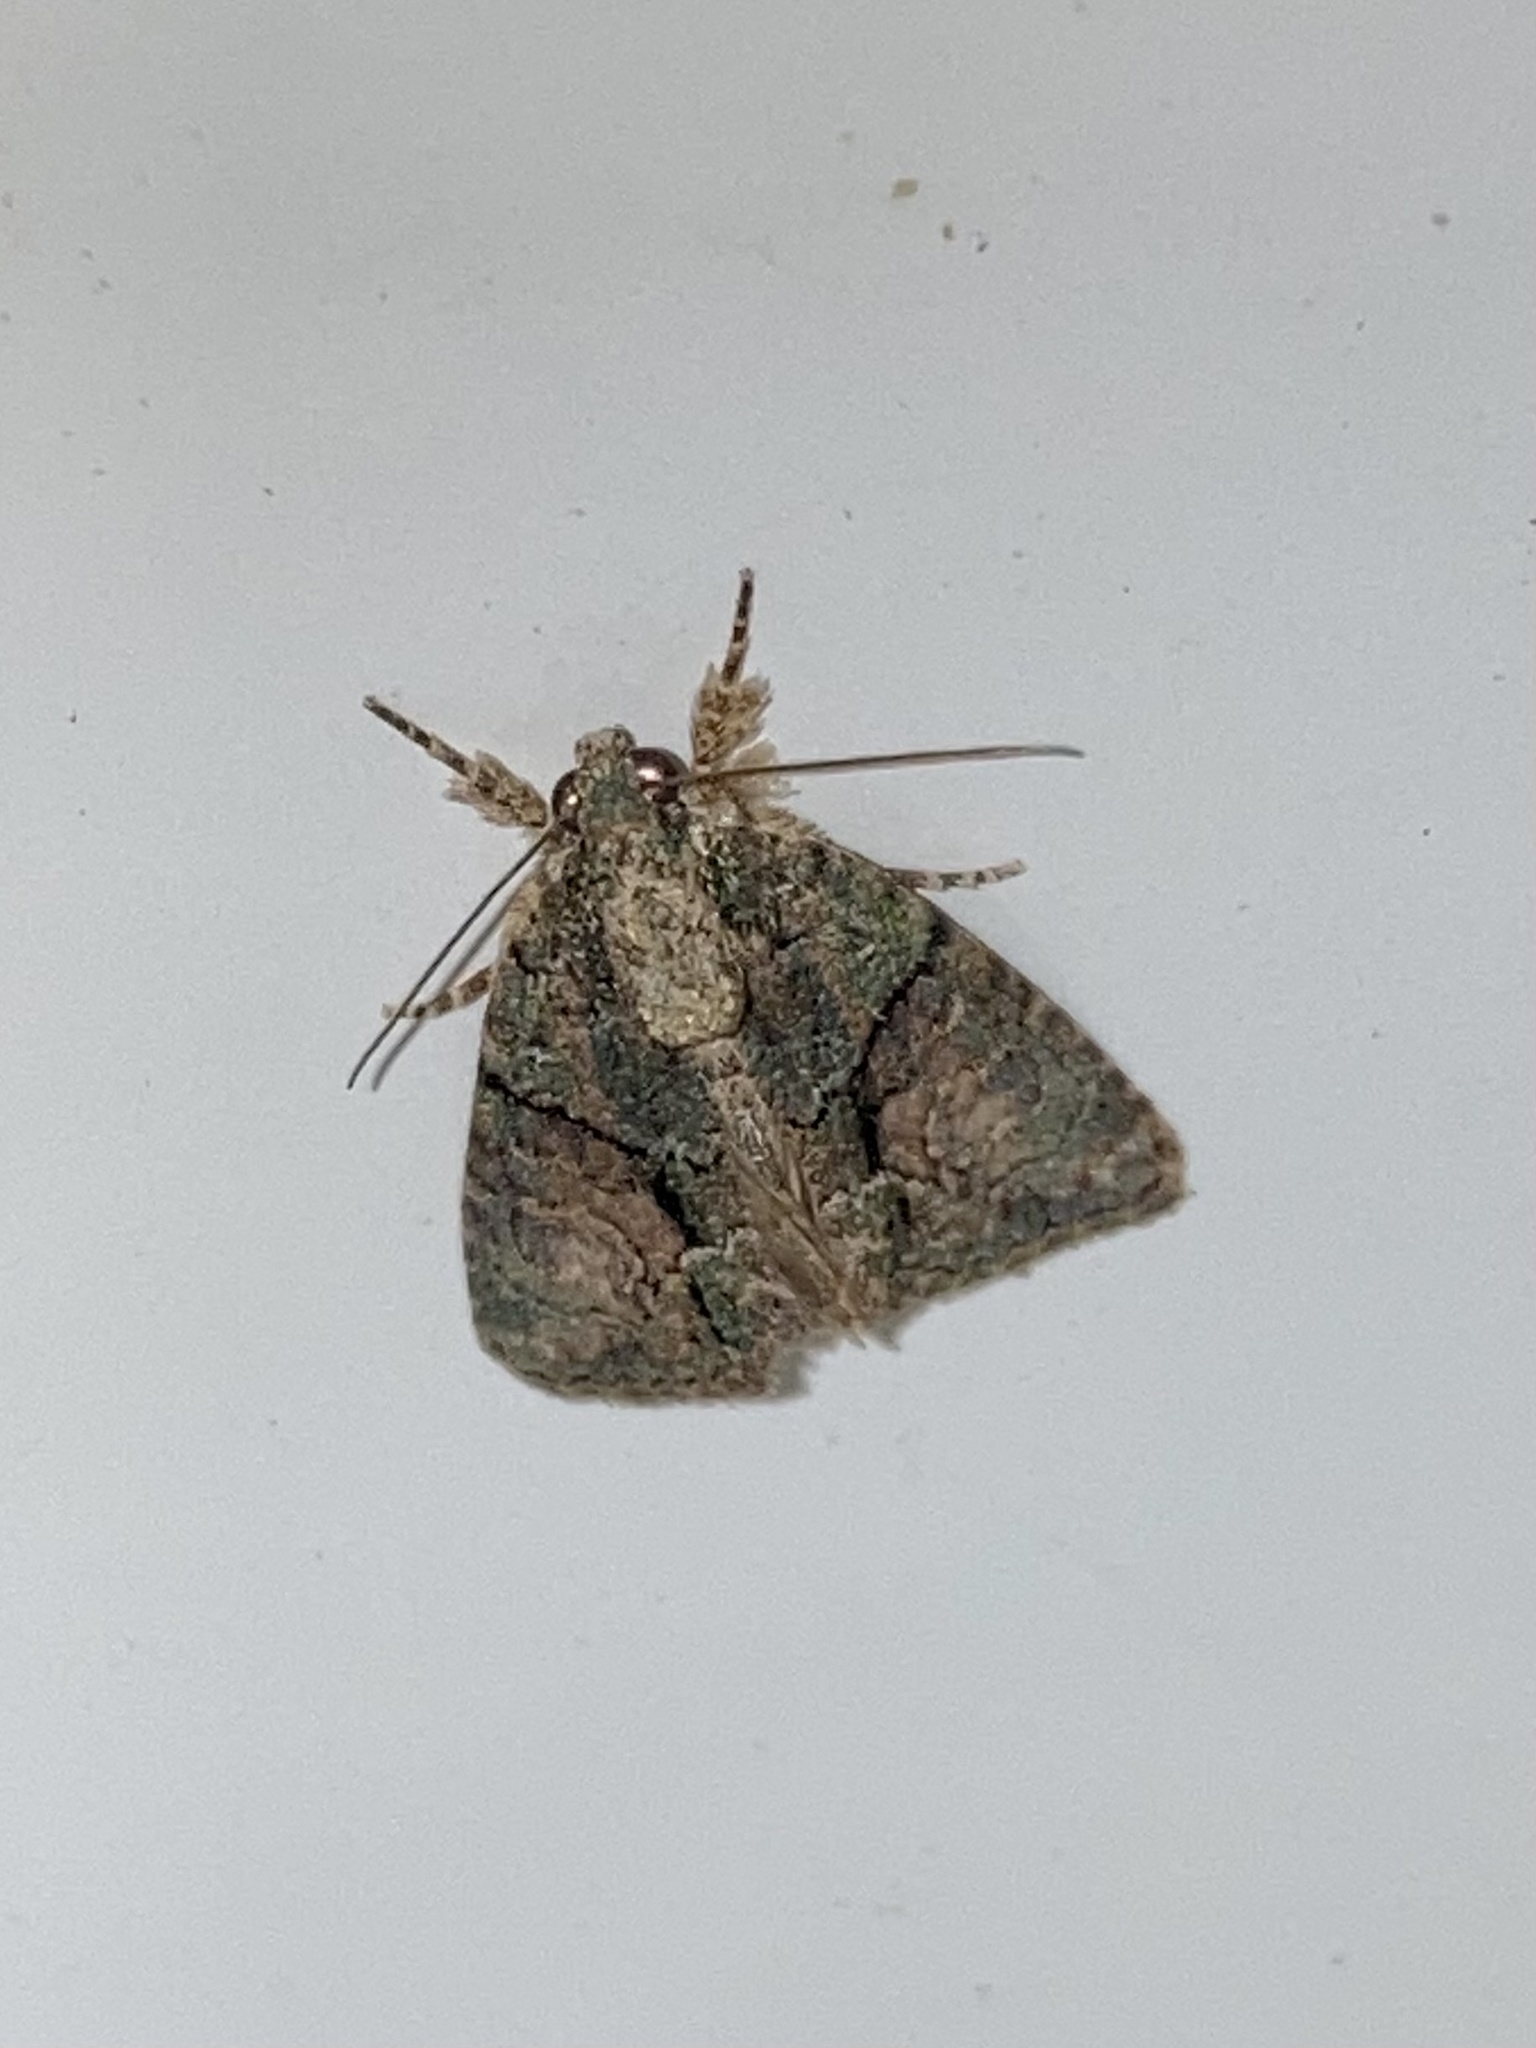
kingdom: Animalia
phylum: Arthropoda
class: Insecta
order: Lepidoptera
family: Noctuidae
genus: Cryphia
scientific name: Cryphia
